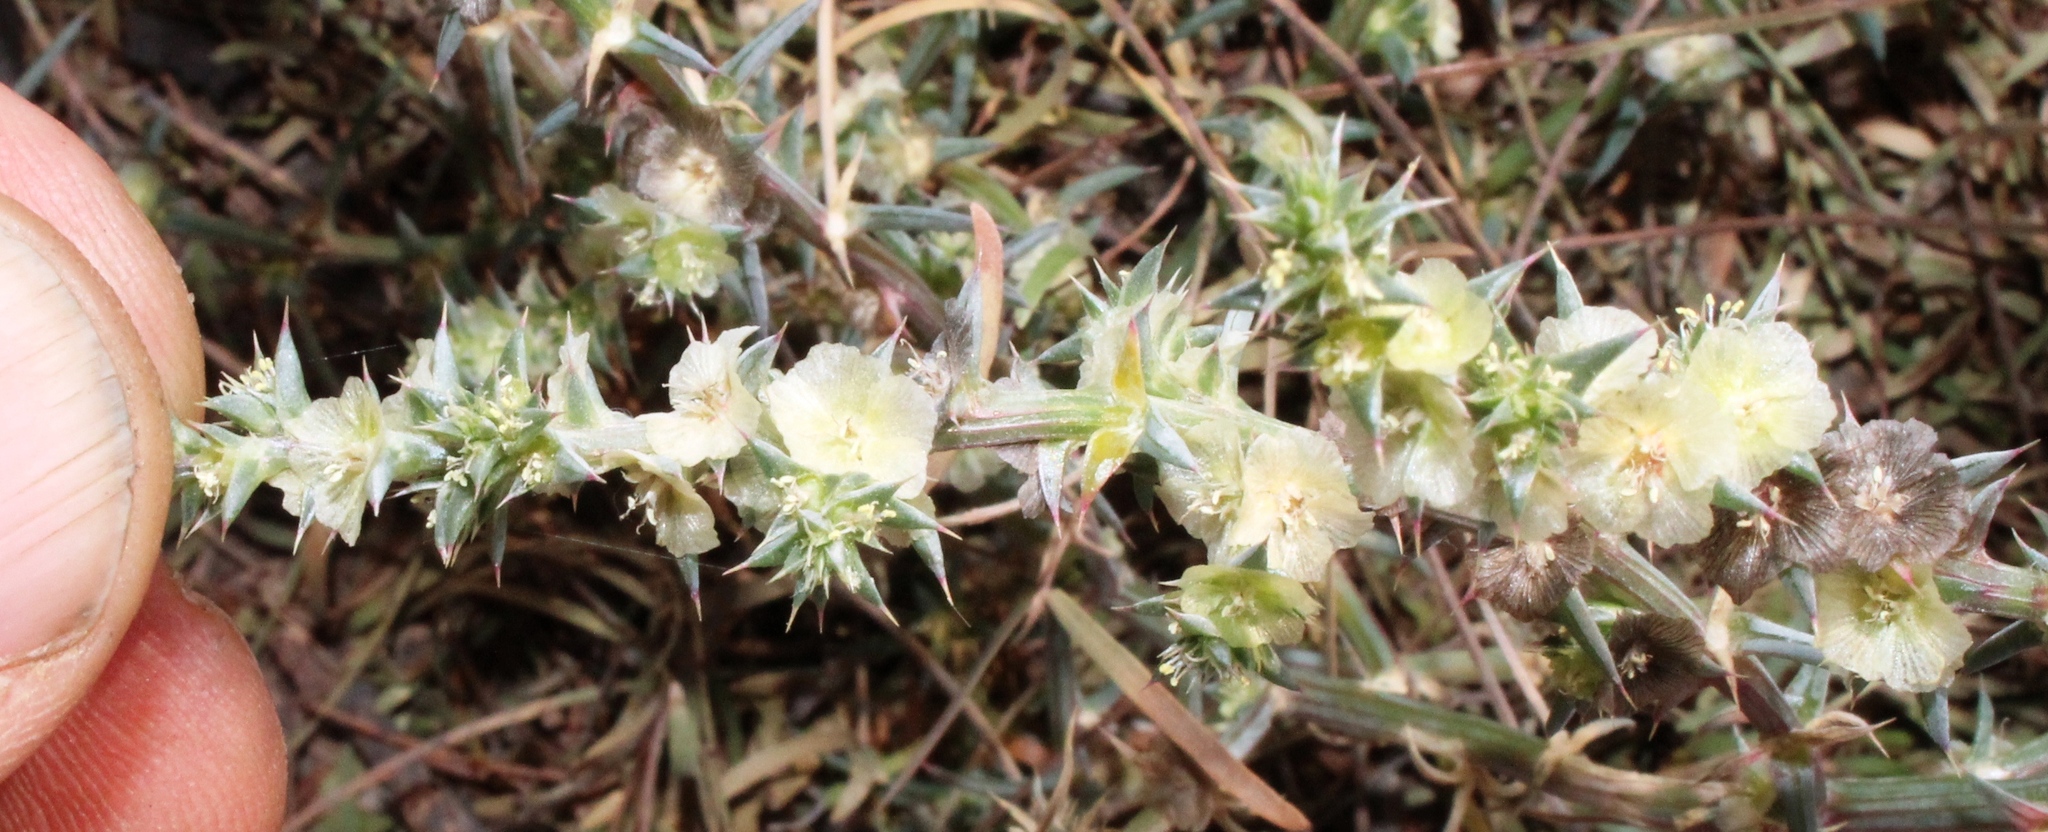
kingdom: Plantae
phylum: Tracheophyta
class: Magnoliopsida
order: Caryophyllales
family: Amaranthaceae
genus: Salsola
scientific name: Salsola kali
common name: Saltwort
